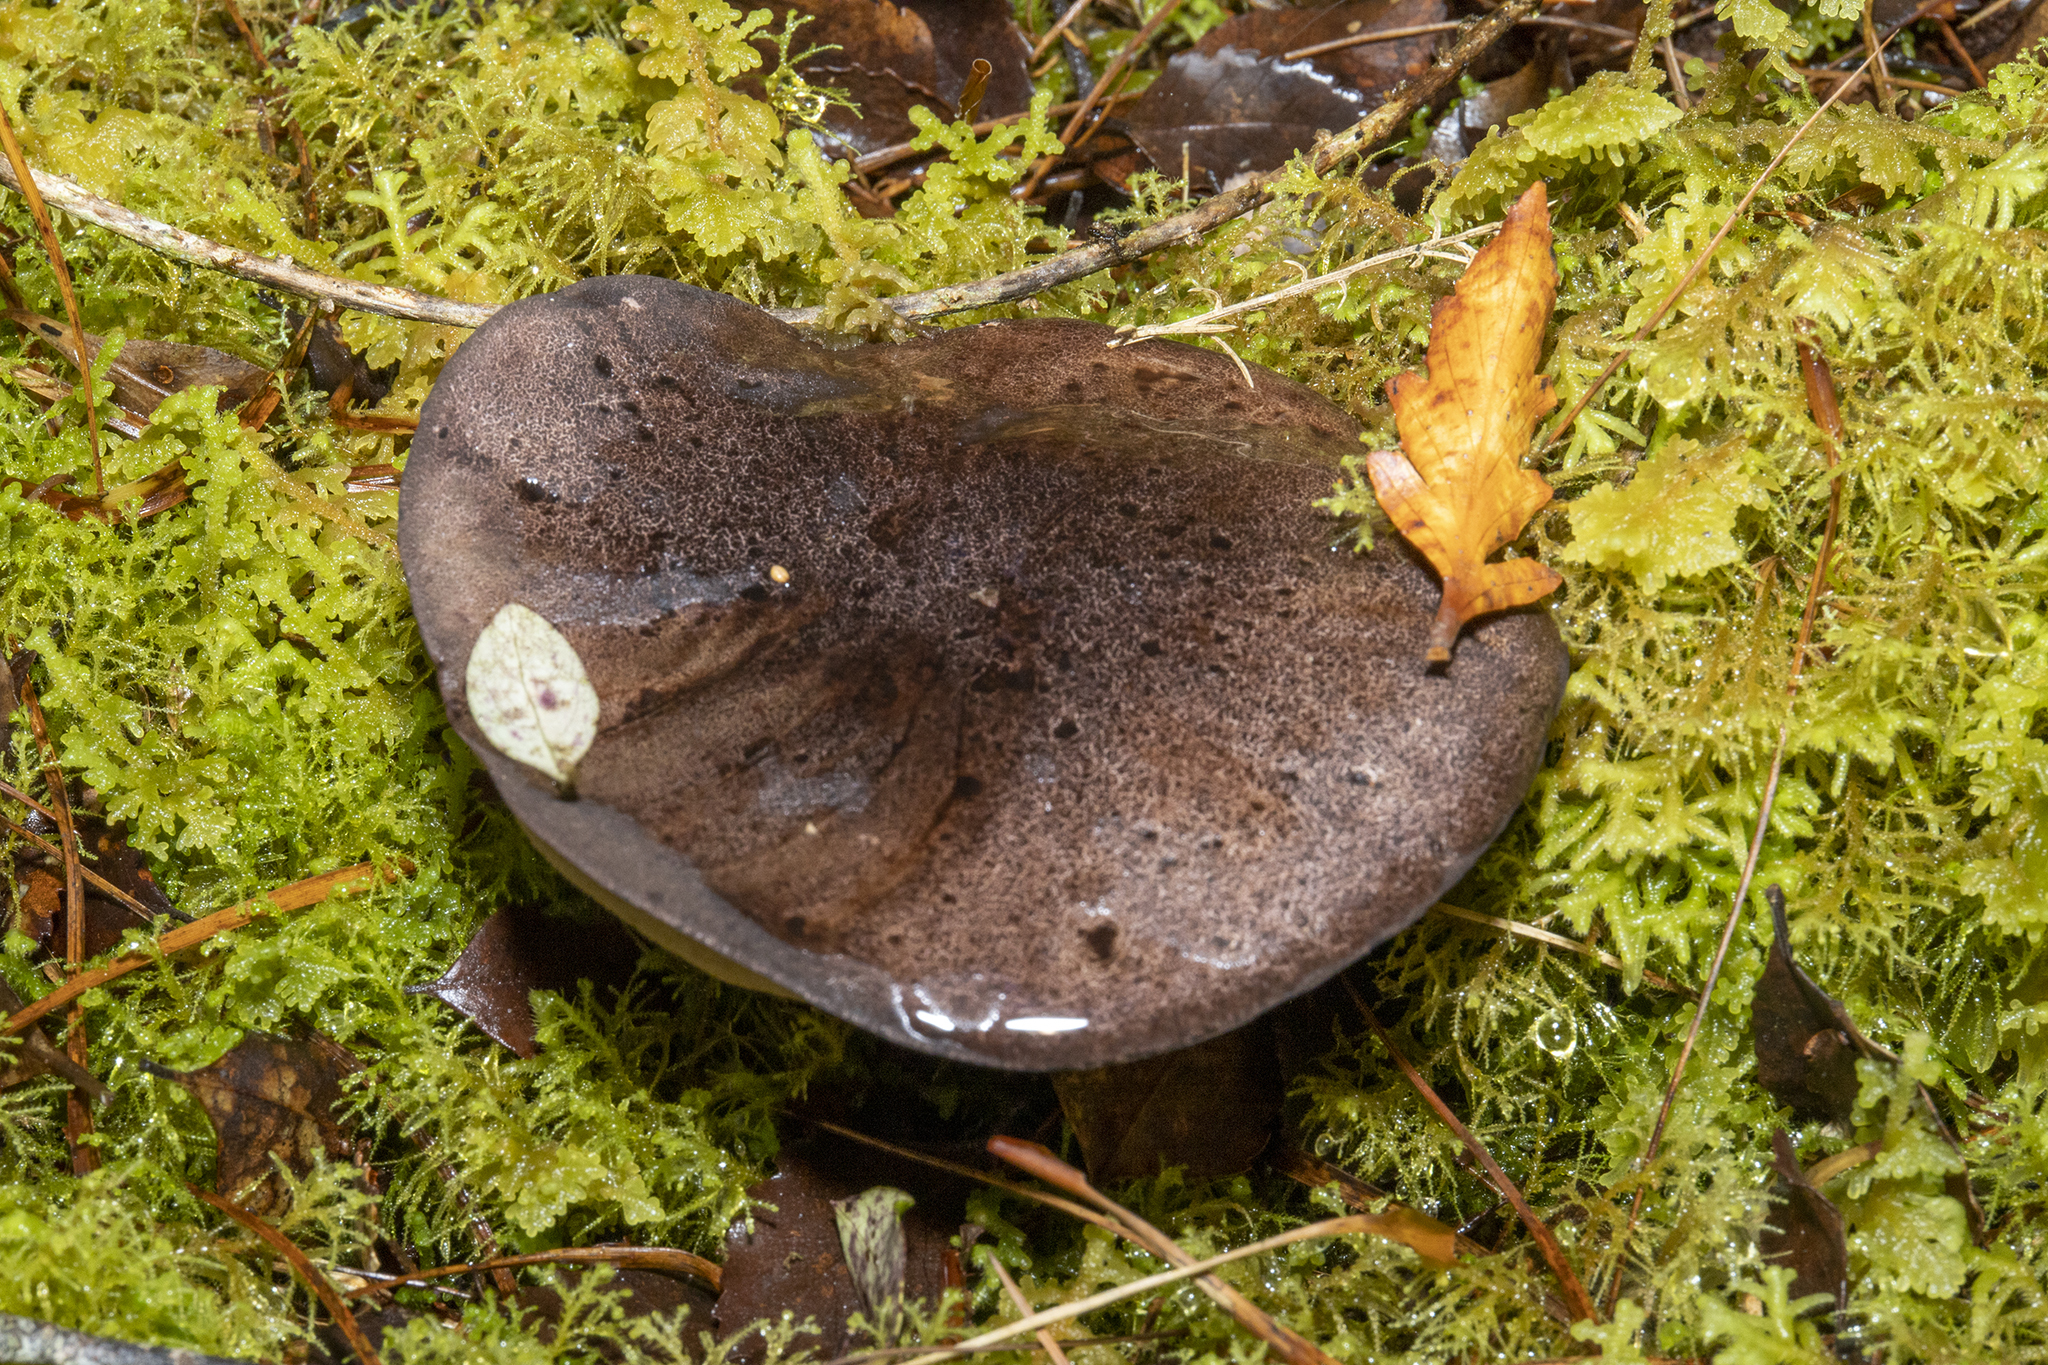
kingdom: Fungi
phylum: Basidiomycota
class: Agaricomycetes
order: Boletales
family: Boletaceae
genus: Porphyrellus
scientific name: Porphyrellus formosus
